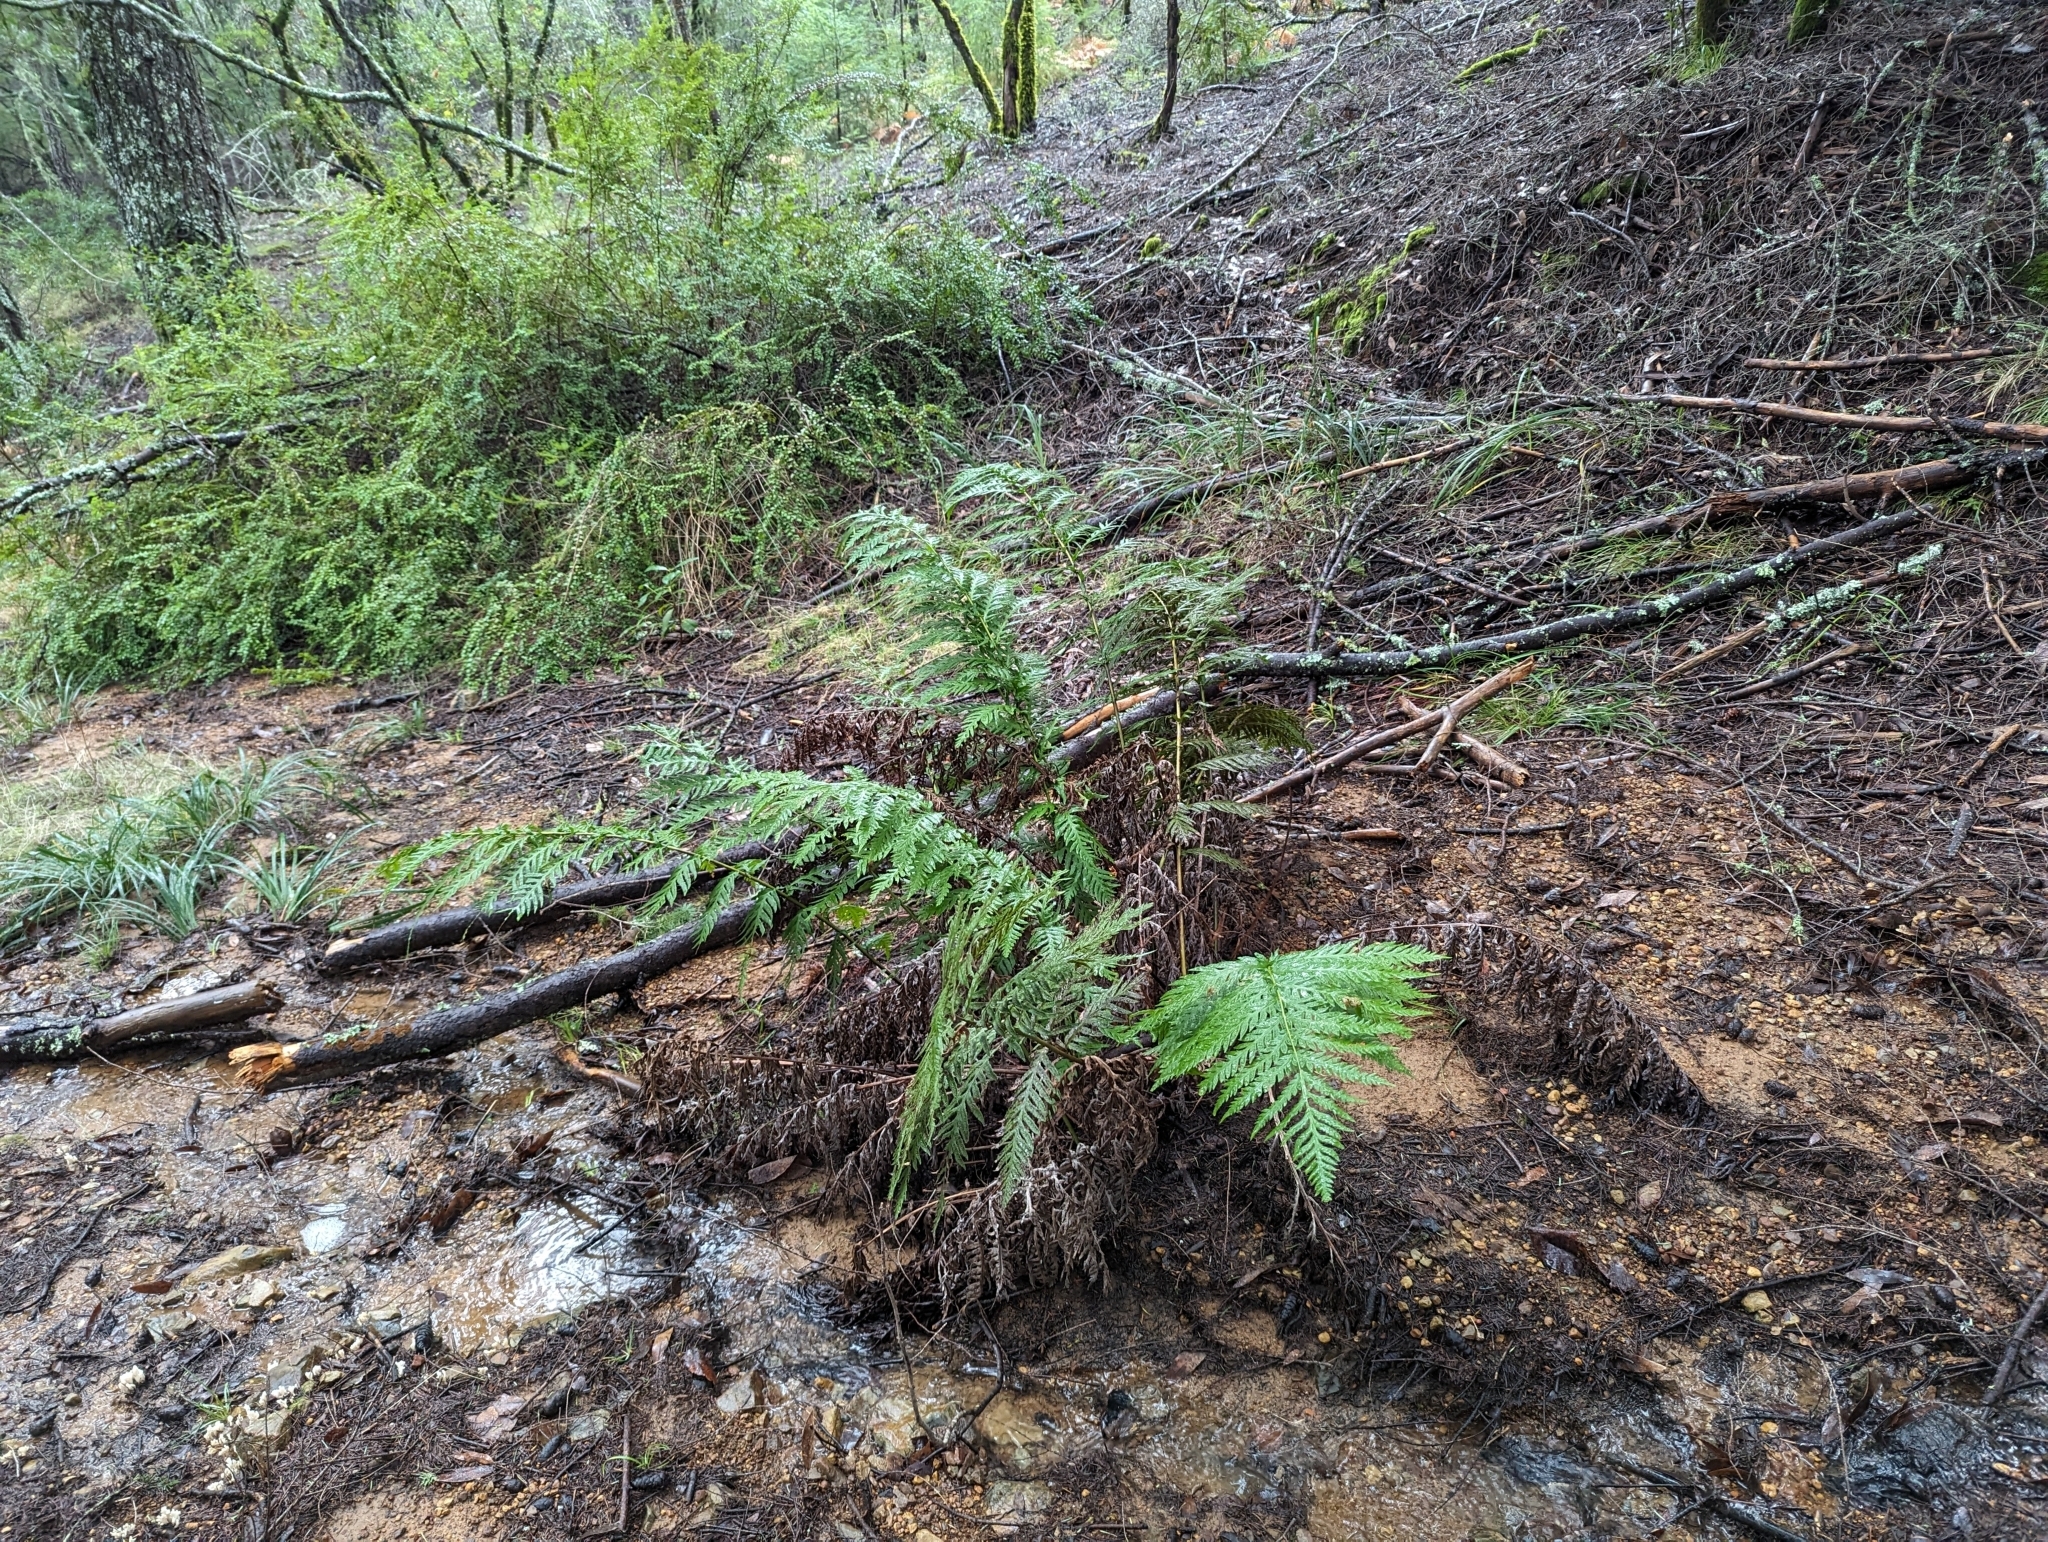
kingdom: Plantae
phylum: Tracheophyta
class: Polypodiopsida
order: Polypodiales
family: Blechnaceae
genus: Woodwardia
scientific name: Woodwardia fimbriata
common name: Giant chain fern
